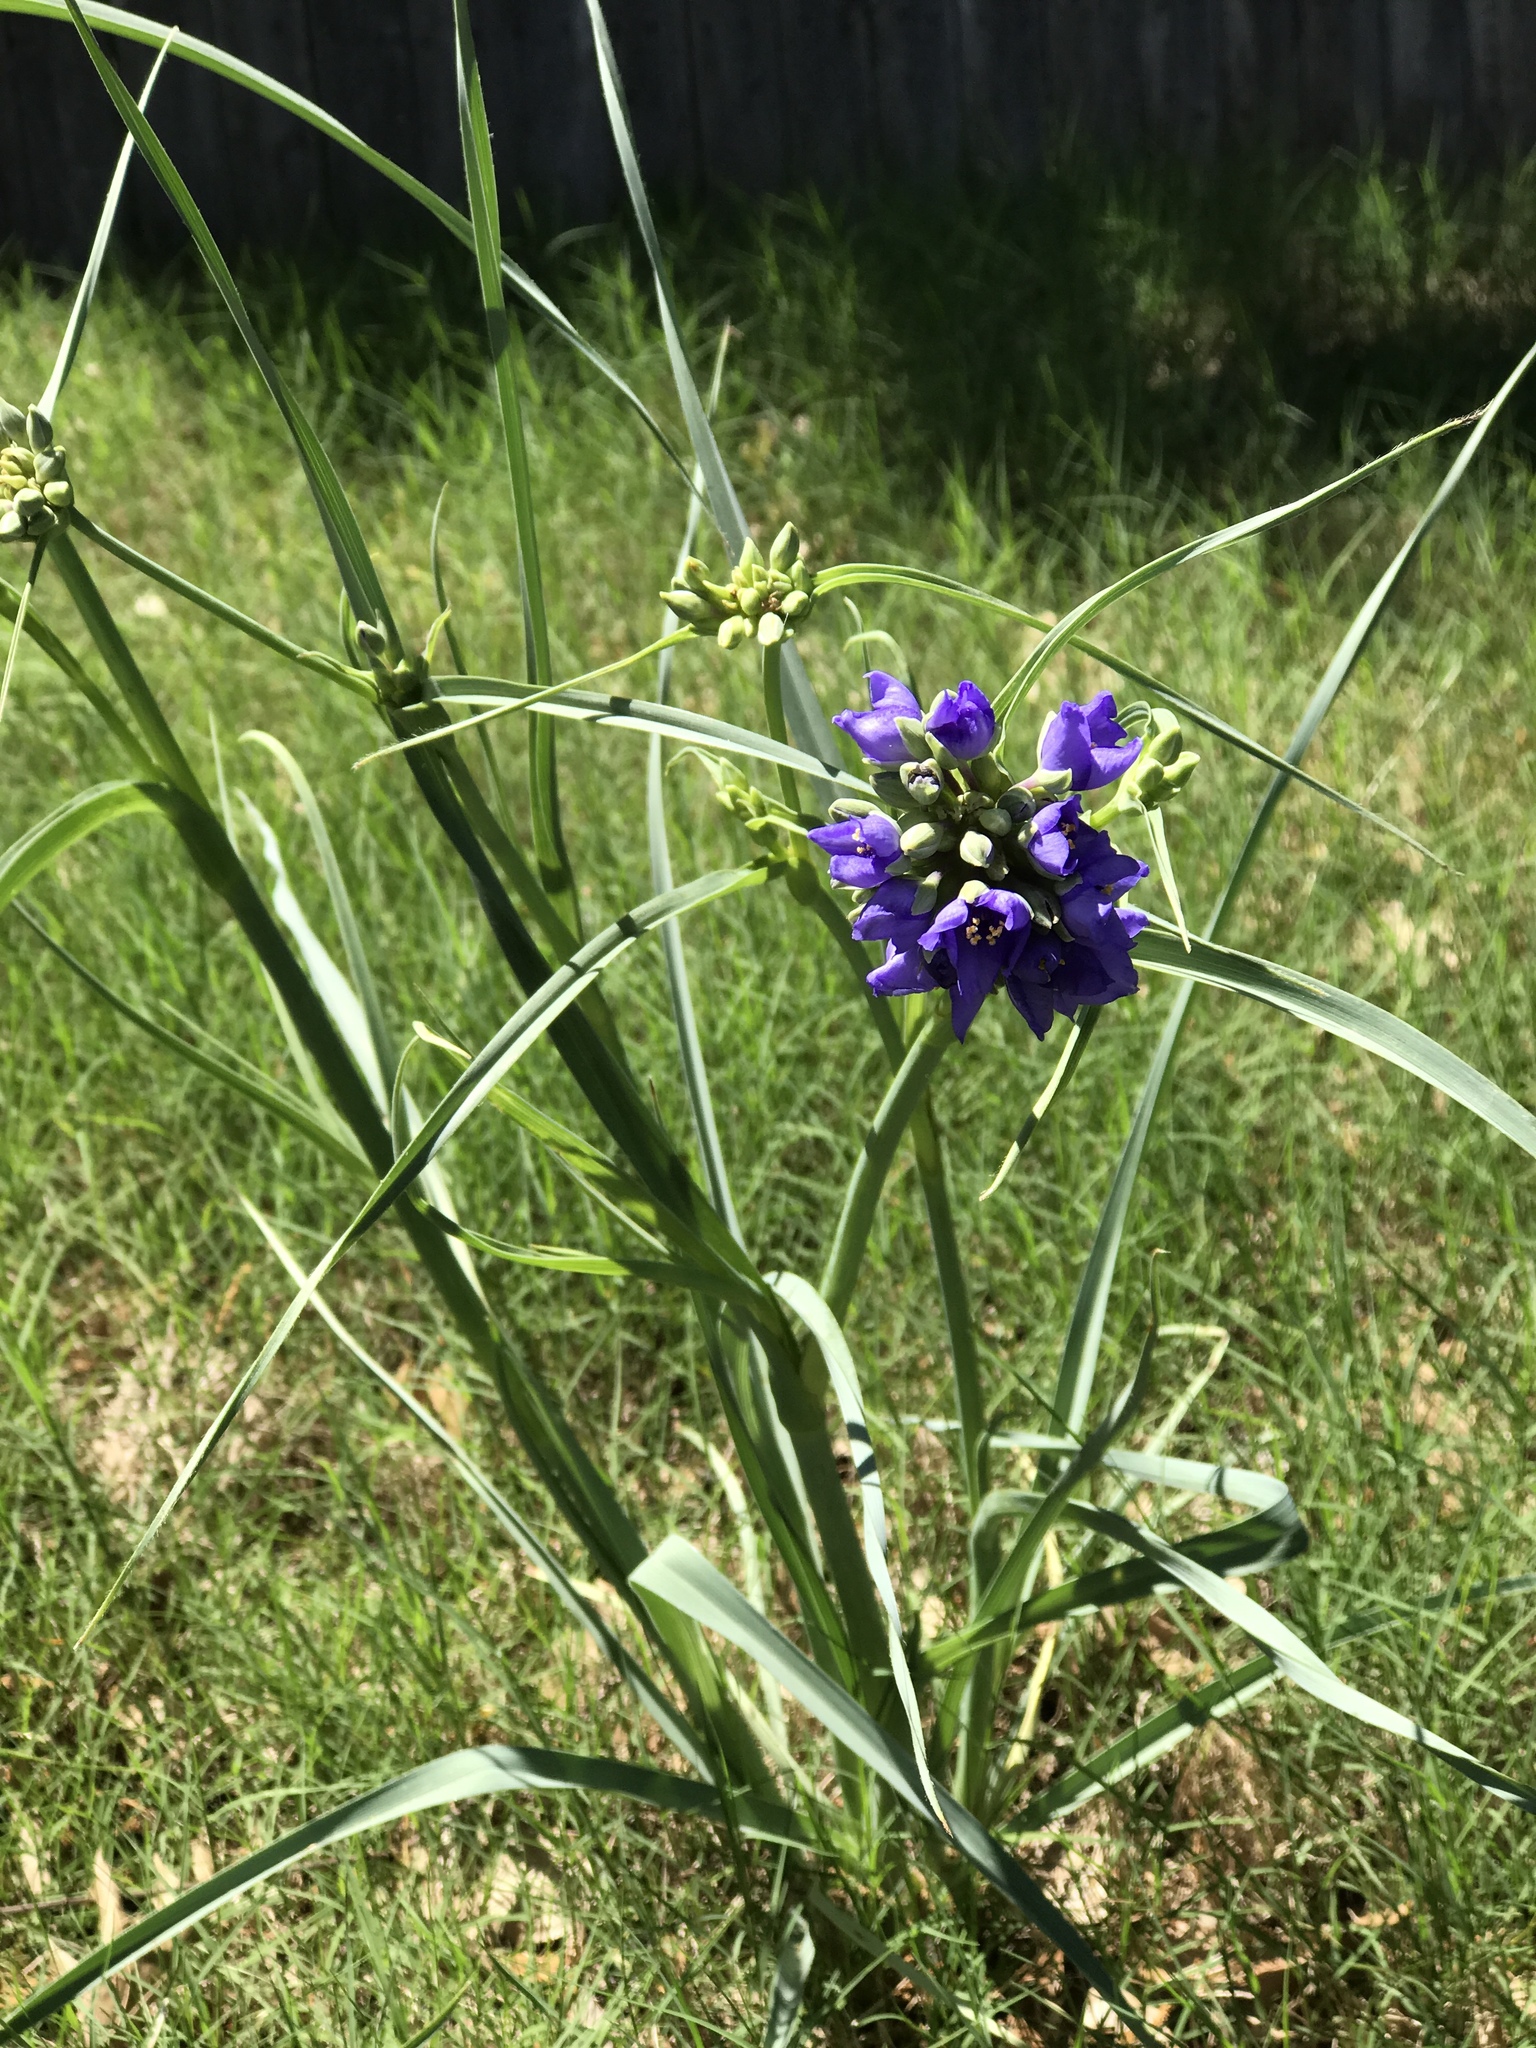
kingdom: Plantae
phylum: Tracheophyta
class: Liliopsida
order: Commelinales
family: Commelinaceae
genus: Tradescantia
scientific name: Tradescantia ohiensis
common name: Ohio spiderwort
